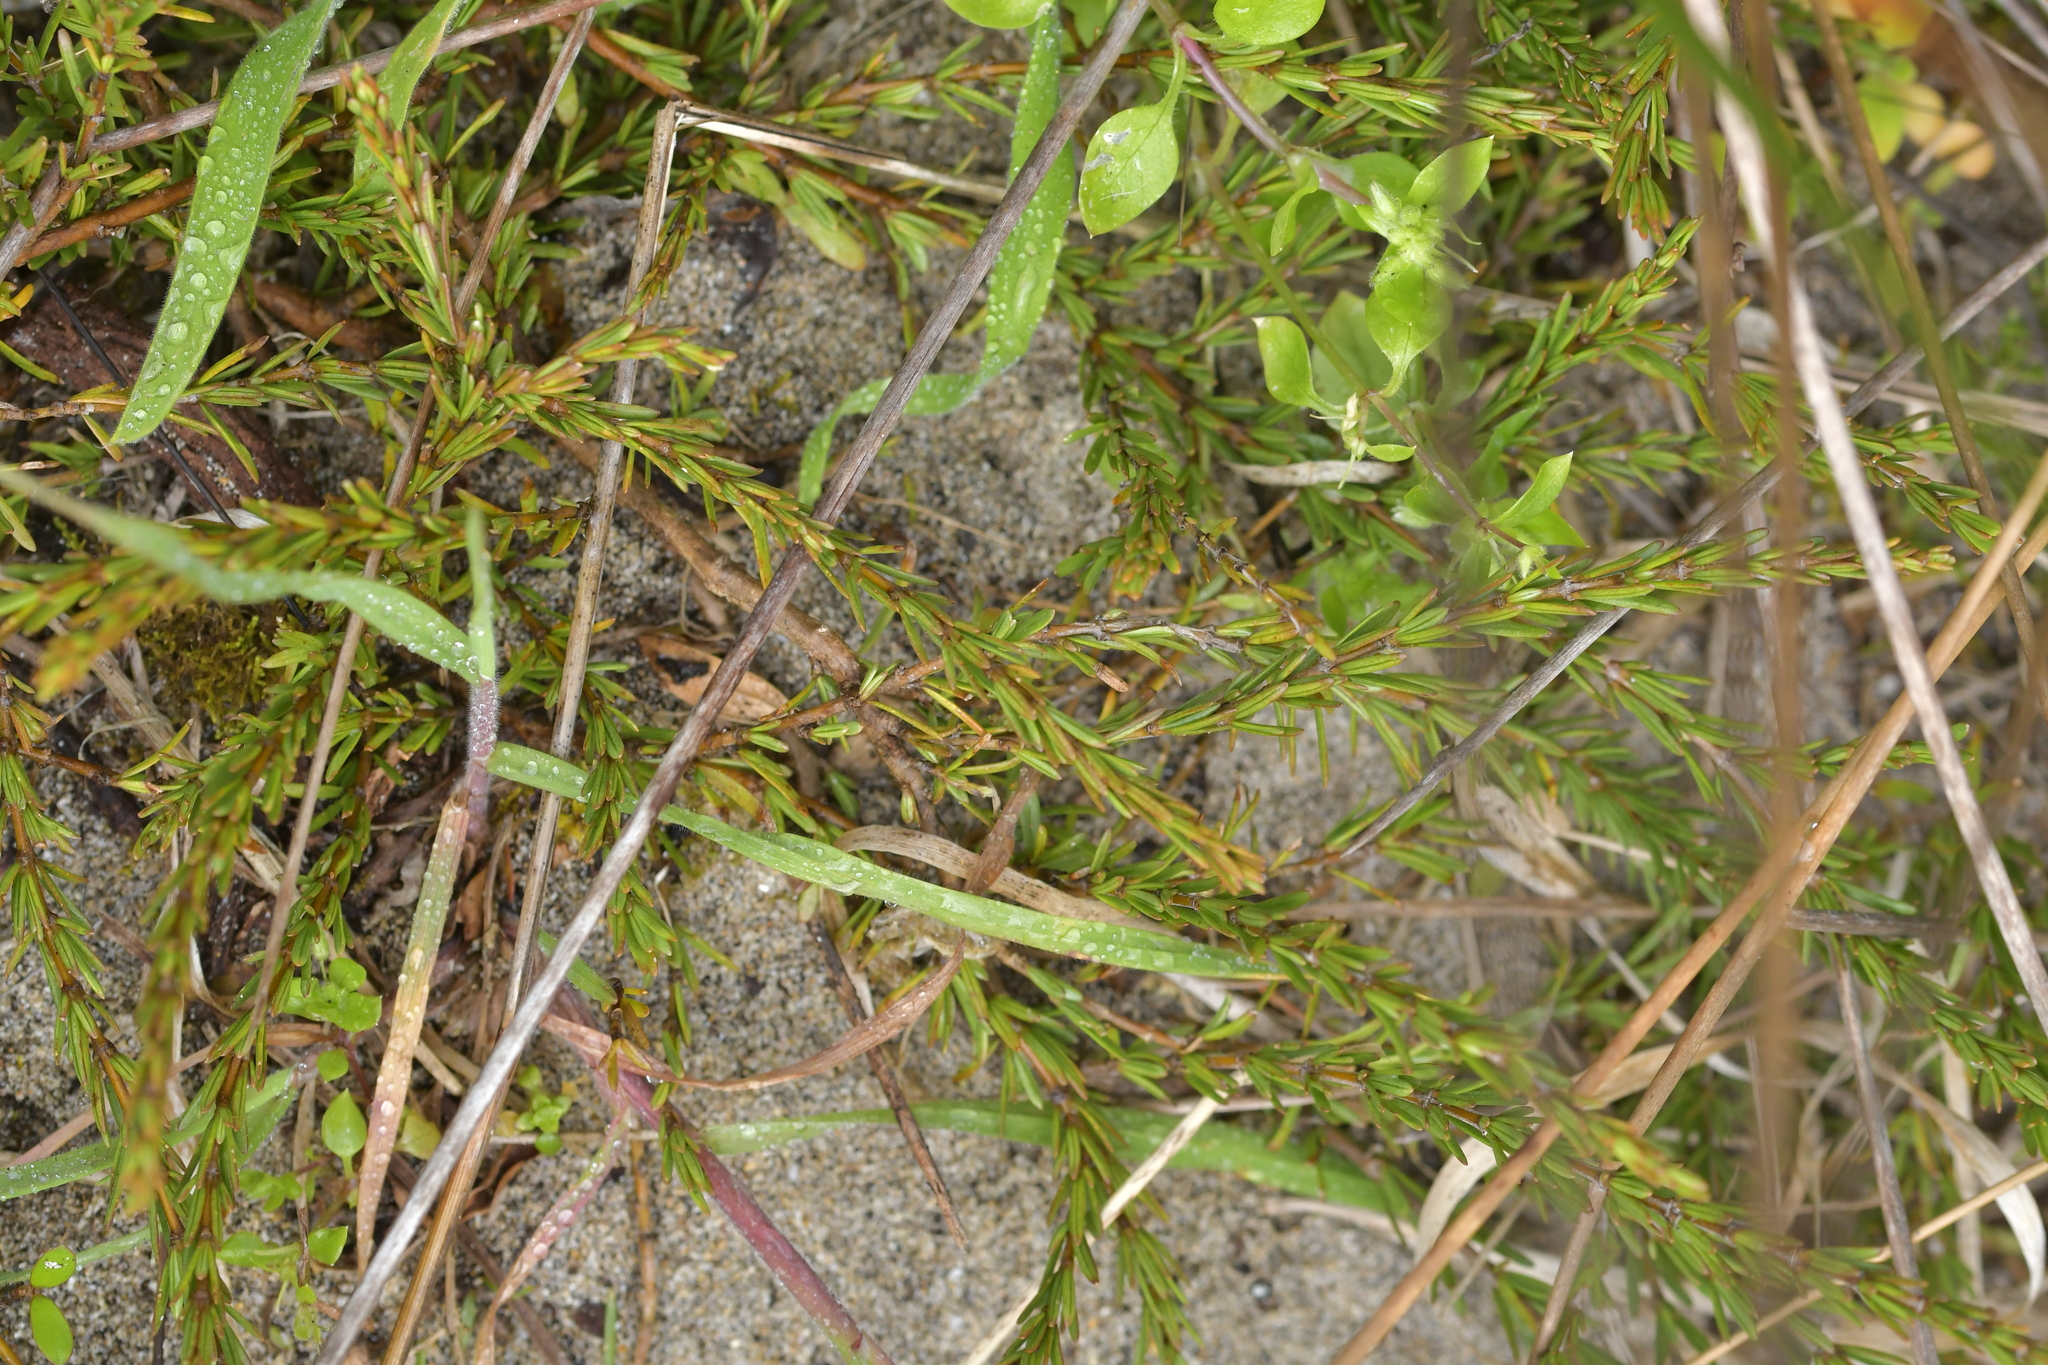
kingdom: Plantae
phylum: Tracheophyta
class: Magnoliopsida
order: Gentianales
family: Rubiaceae
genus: Coprosma
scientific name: Coprosma acerosa
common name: Sand coprosma
